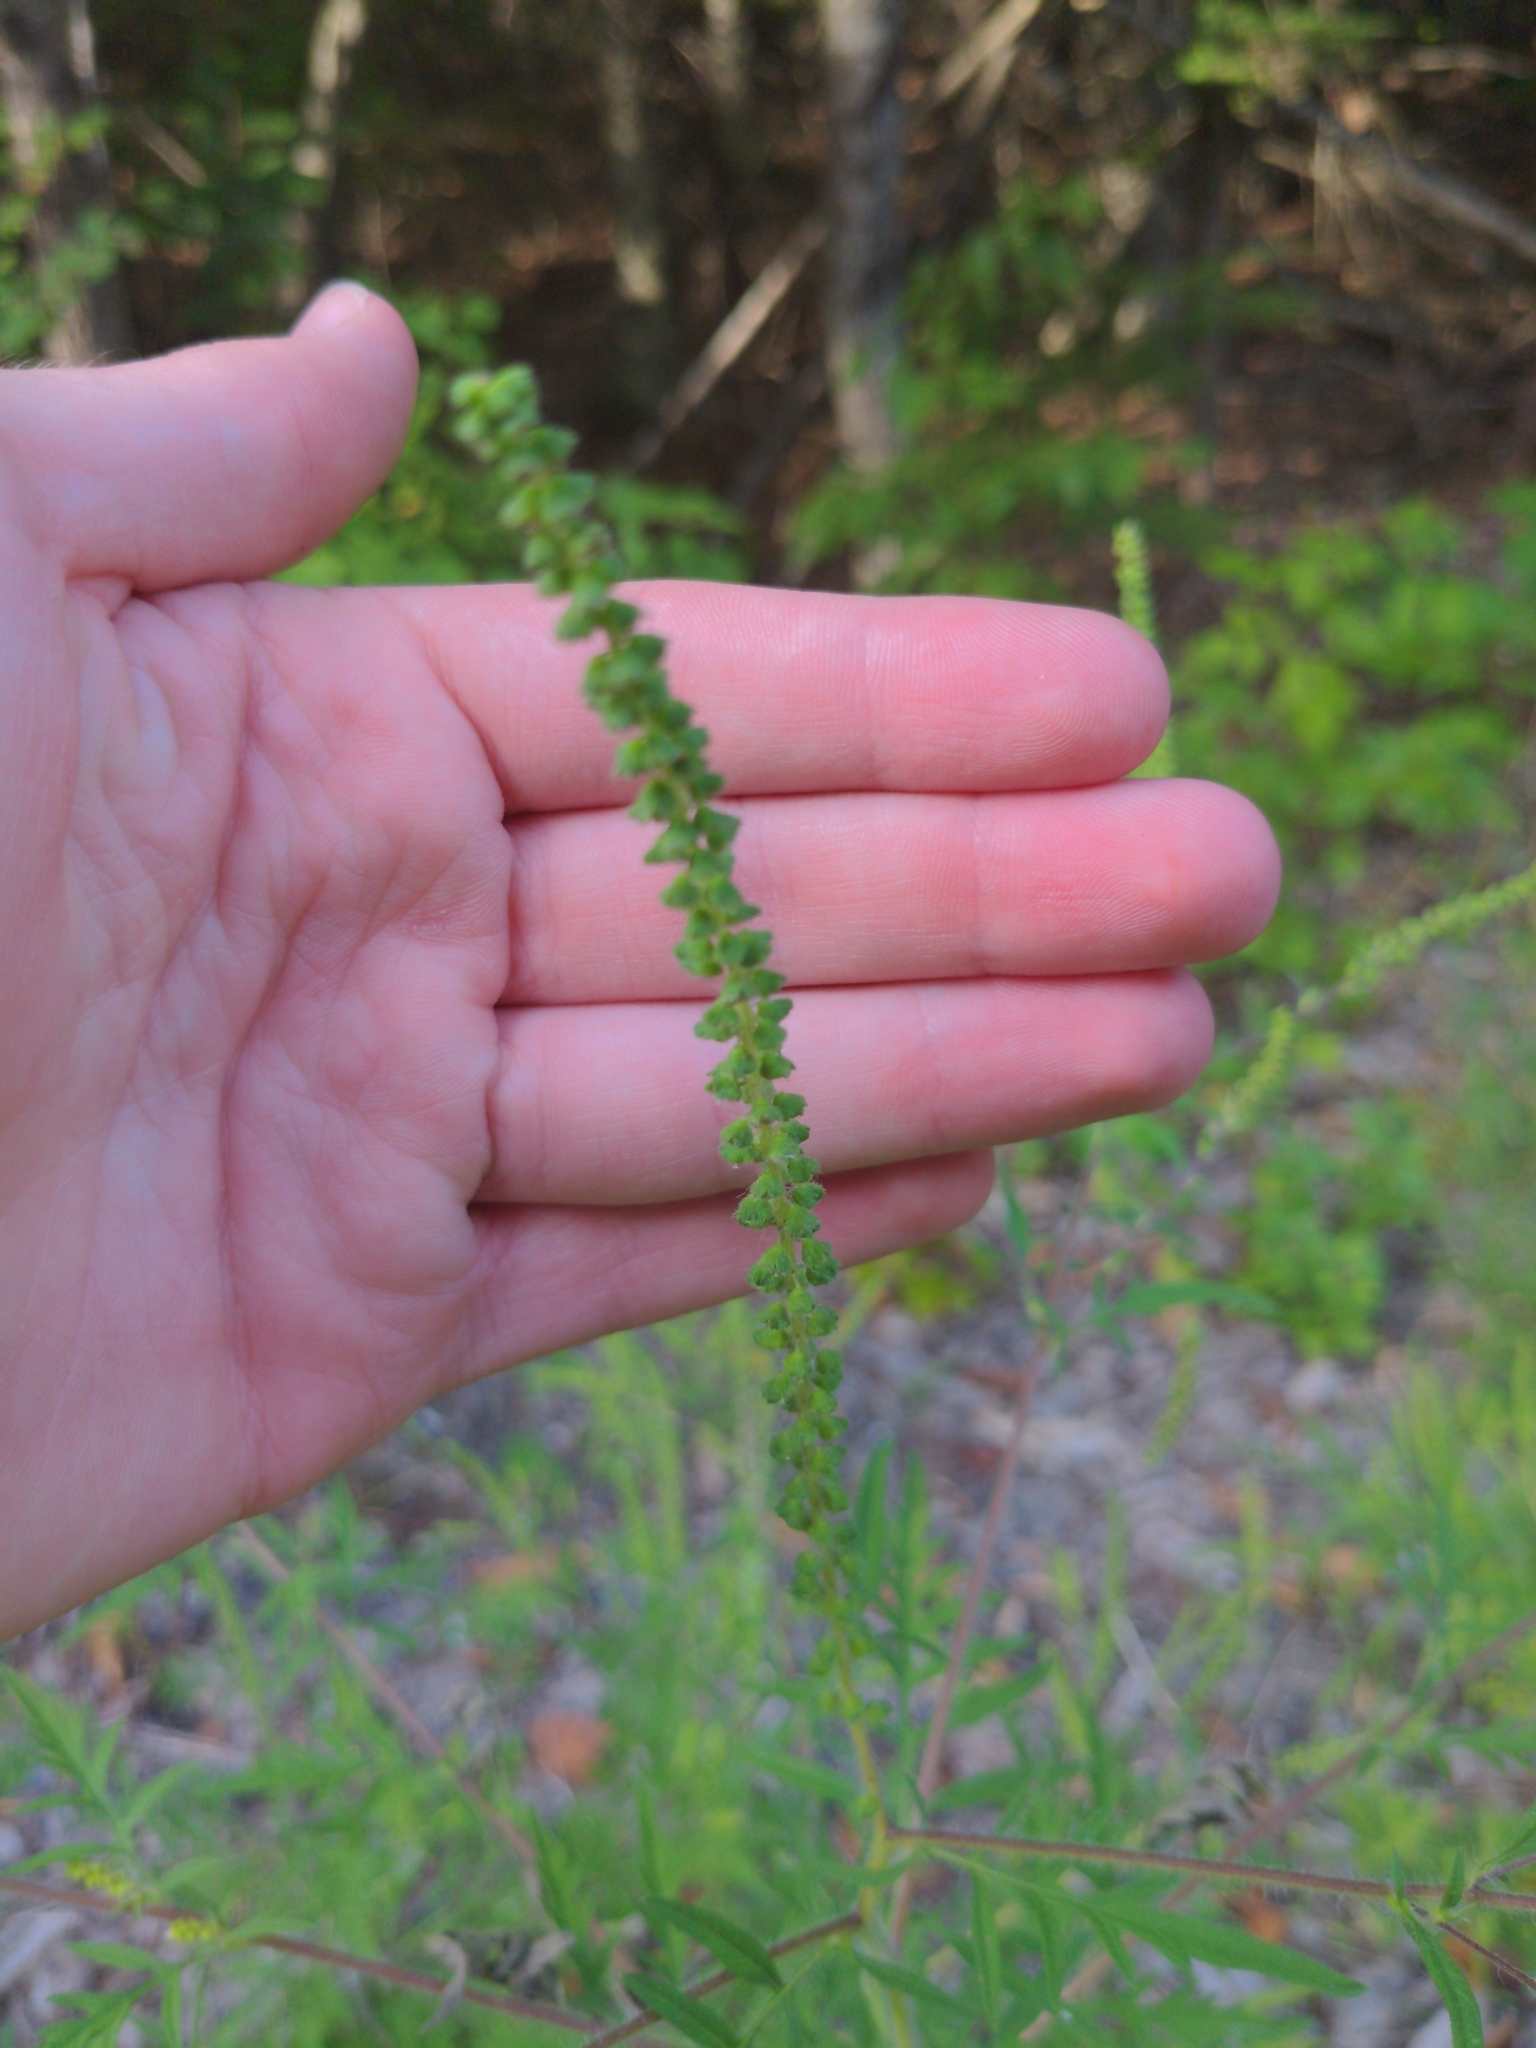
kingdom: Plantae
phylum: Tracheophyta
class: Magnoliopsida
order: Asterales
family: Asteraceae
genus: Ambrosia
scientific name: Ambrosia artemisiifolia
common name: Annual ragweed
